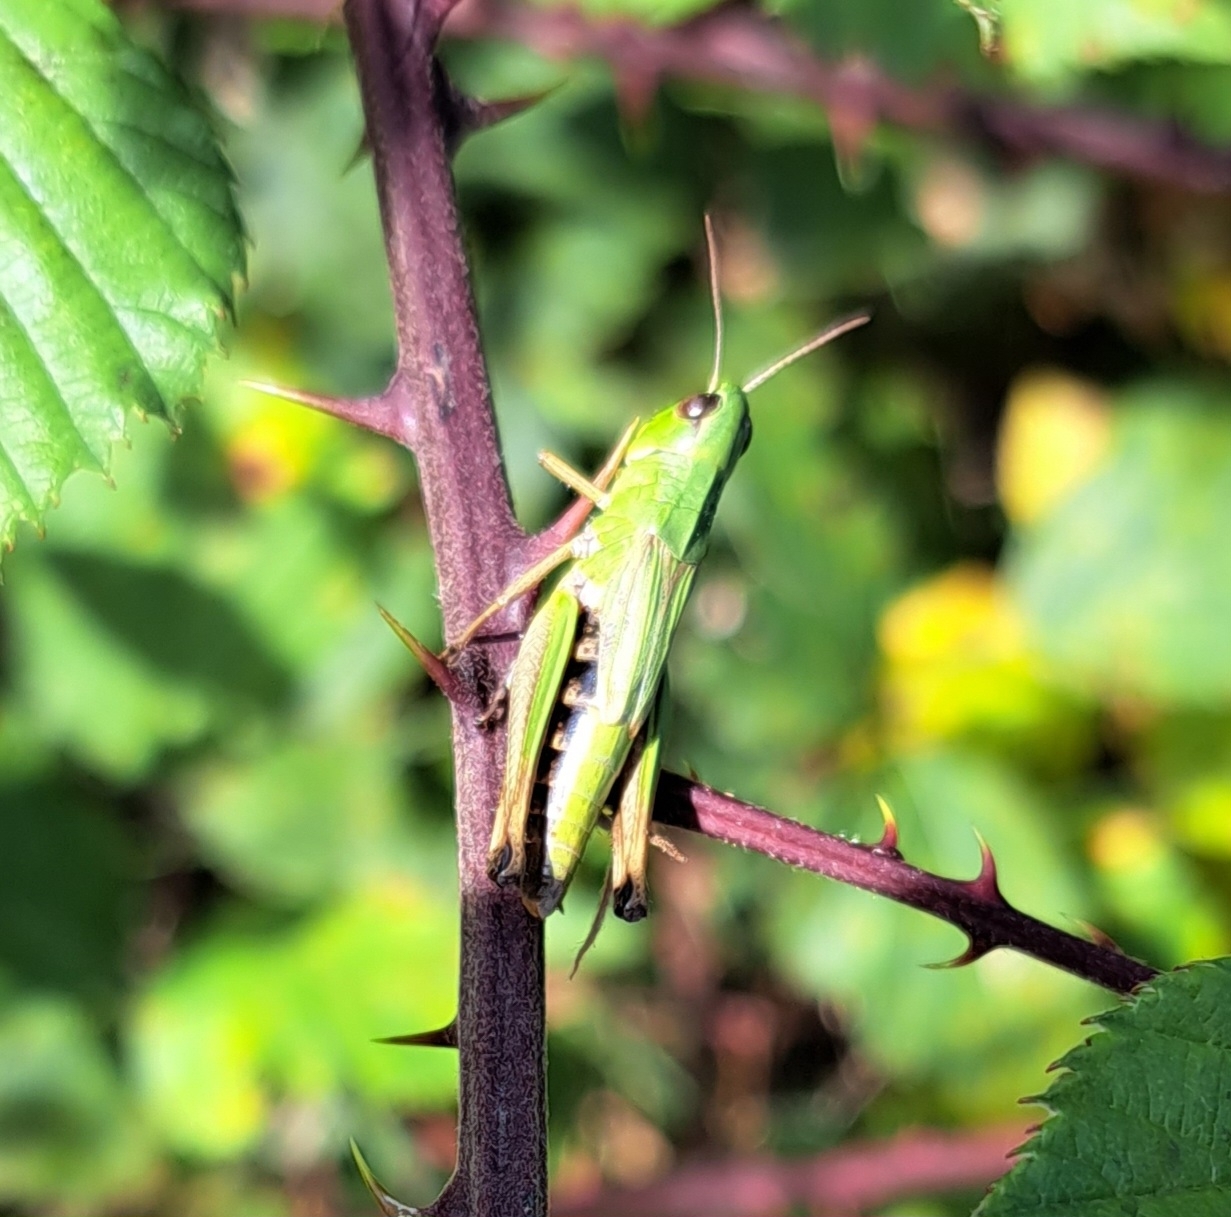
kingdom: Animalia
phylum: Arthropoda
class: Insecta
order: Orthoptera
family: Acrididae
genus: Pseudochorthippus
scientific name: Pseudochorthippus parallelus
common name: Meadow grasshopper
